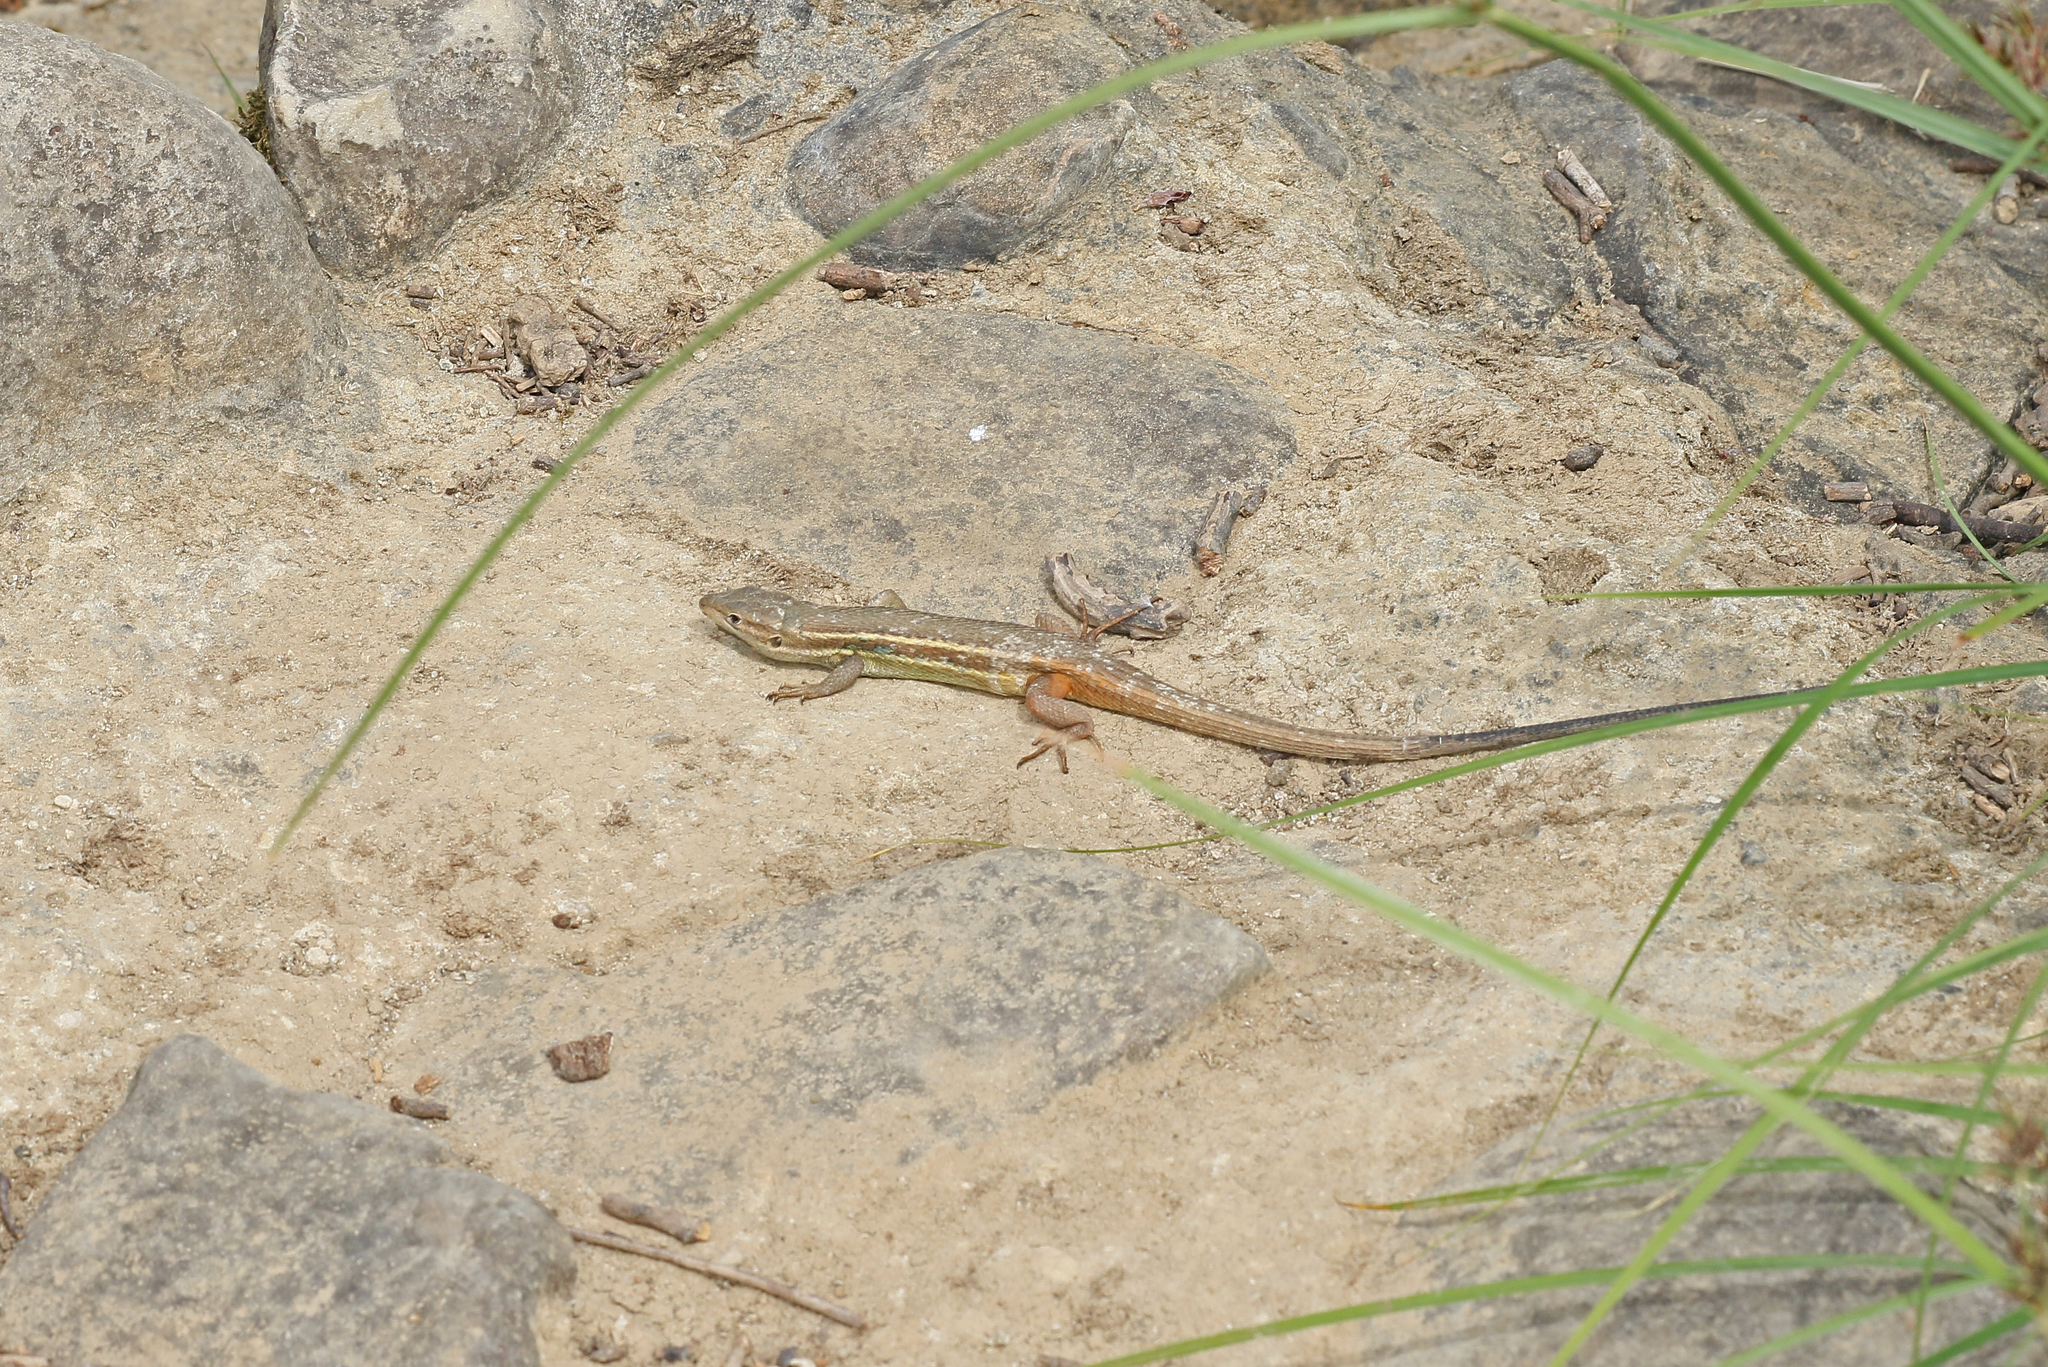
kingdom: Animalia
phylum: Chordata
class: Squamata
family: Lacertidae
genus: Psammodromus
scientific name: Psammodromus algirus
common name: Algerian psammodromus
